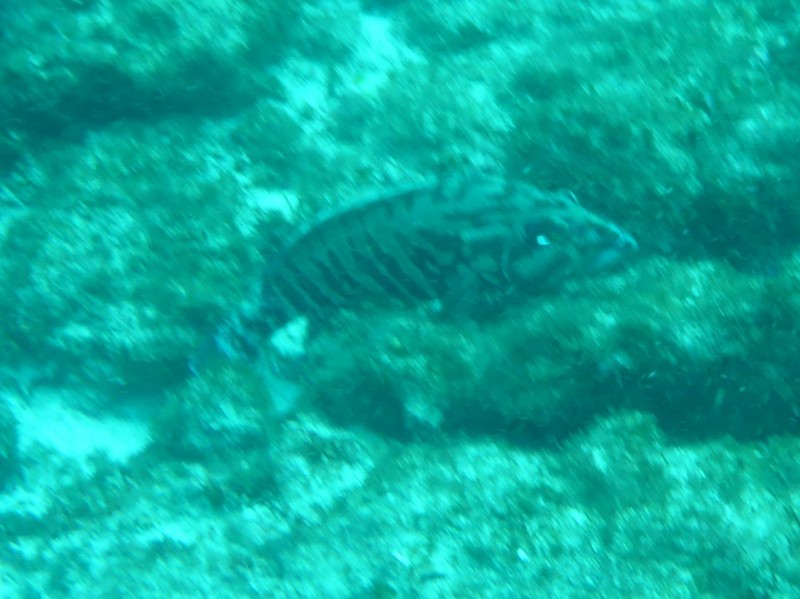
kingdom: Animalia
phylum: Chordata
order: Perciformes
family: Serranidae
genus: Cephalopholis
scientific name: Cephalopholis panamensis
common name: Pacific graysby
